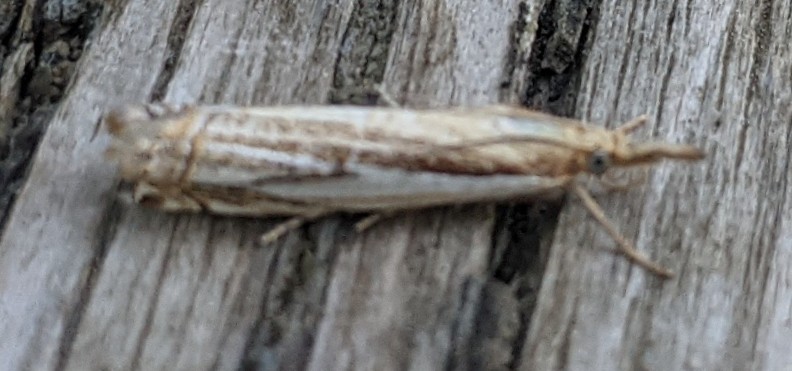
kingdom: Animalia
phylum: Arthropoda
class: Insecta
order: Lepidoptera
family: Crambidae
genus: Crambus
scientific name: Crambus saltuellus
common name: Pasture grass-veneer
